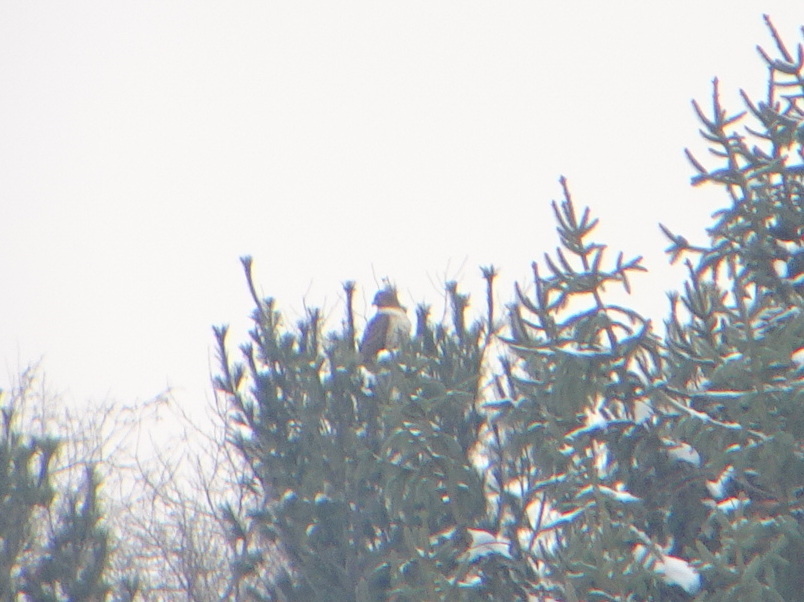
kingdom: Animalia
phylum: Chordata
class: Aves
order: Accipitriformes
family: Accipitridae
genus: Buteo
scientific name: Buteo jamaicensis
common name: Red-tailed hawk
